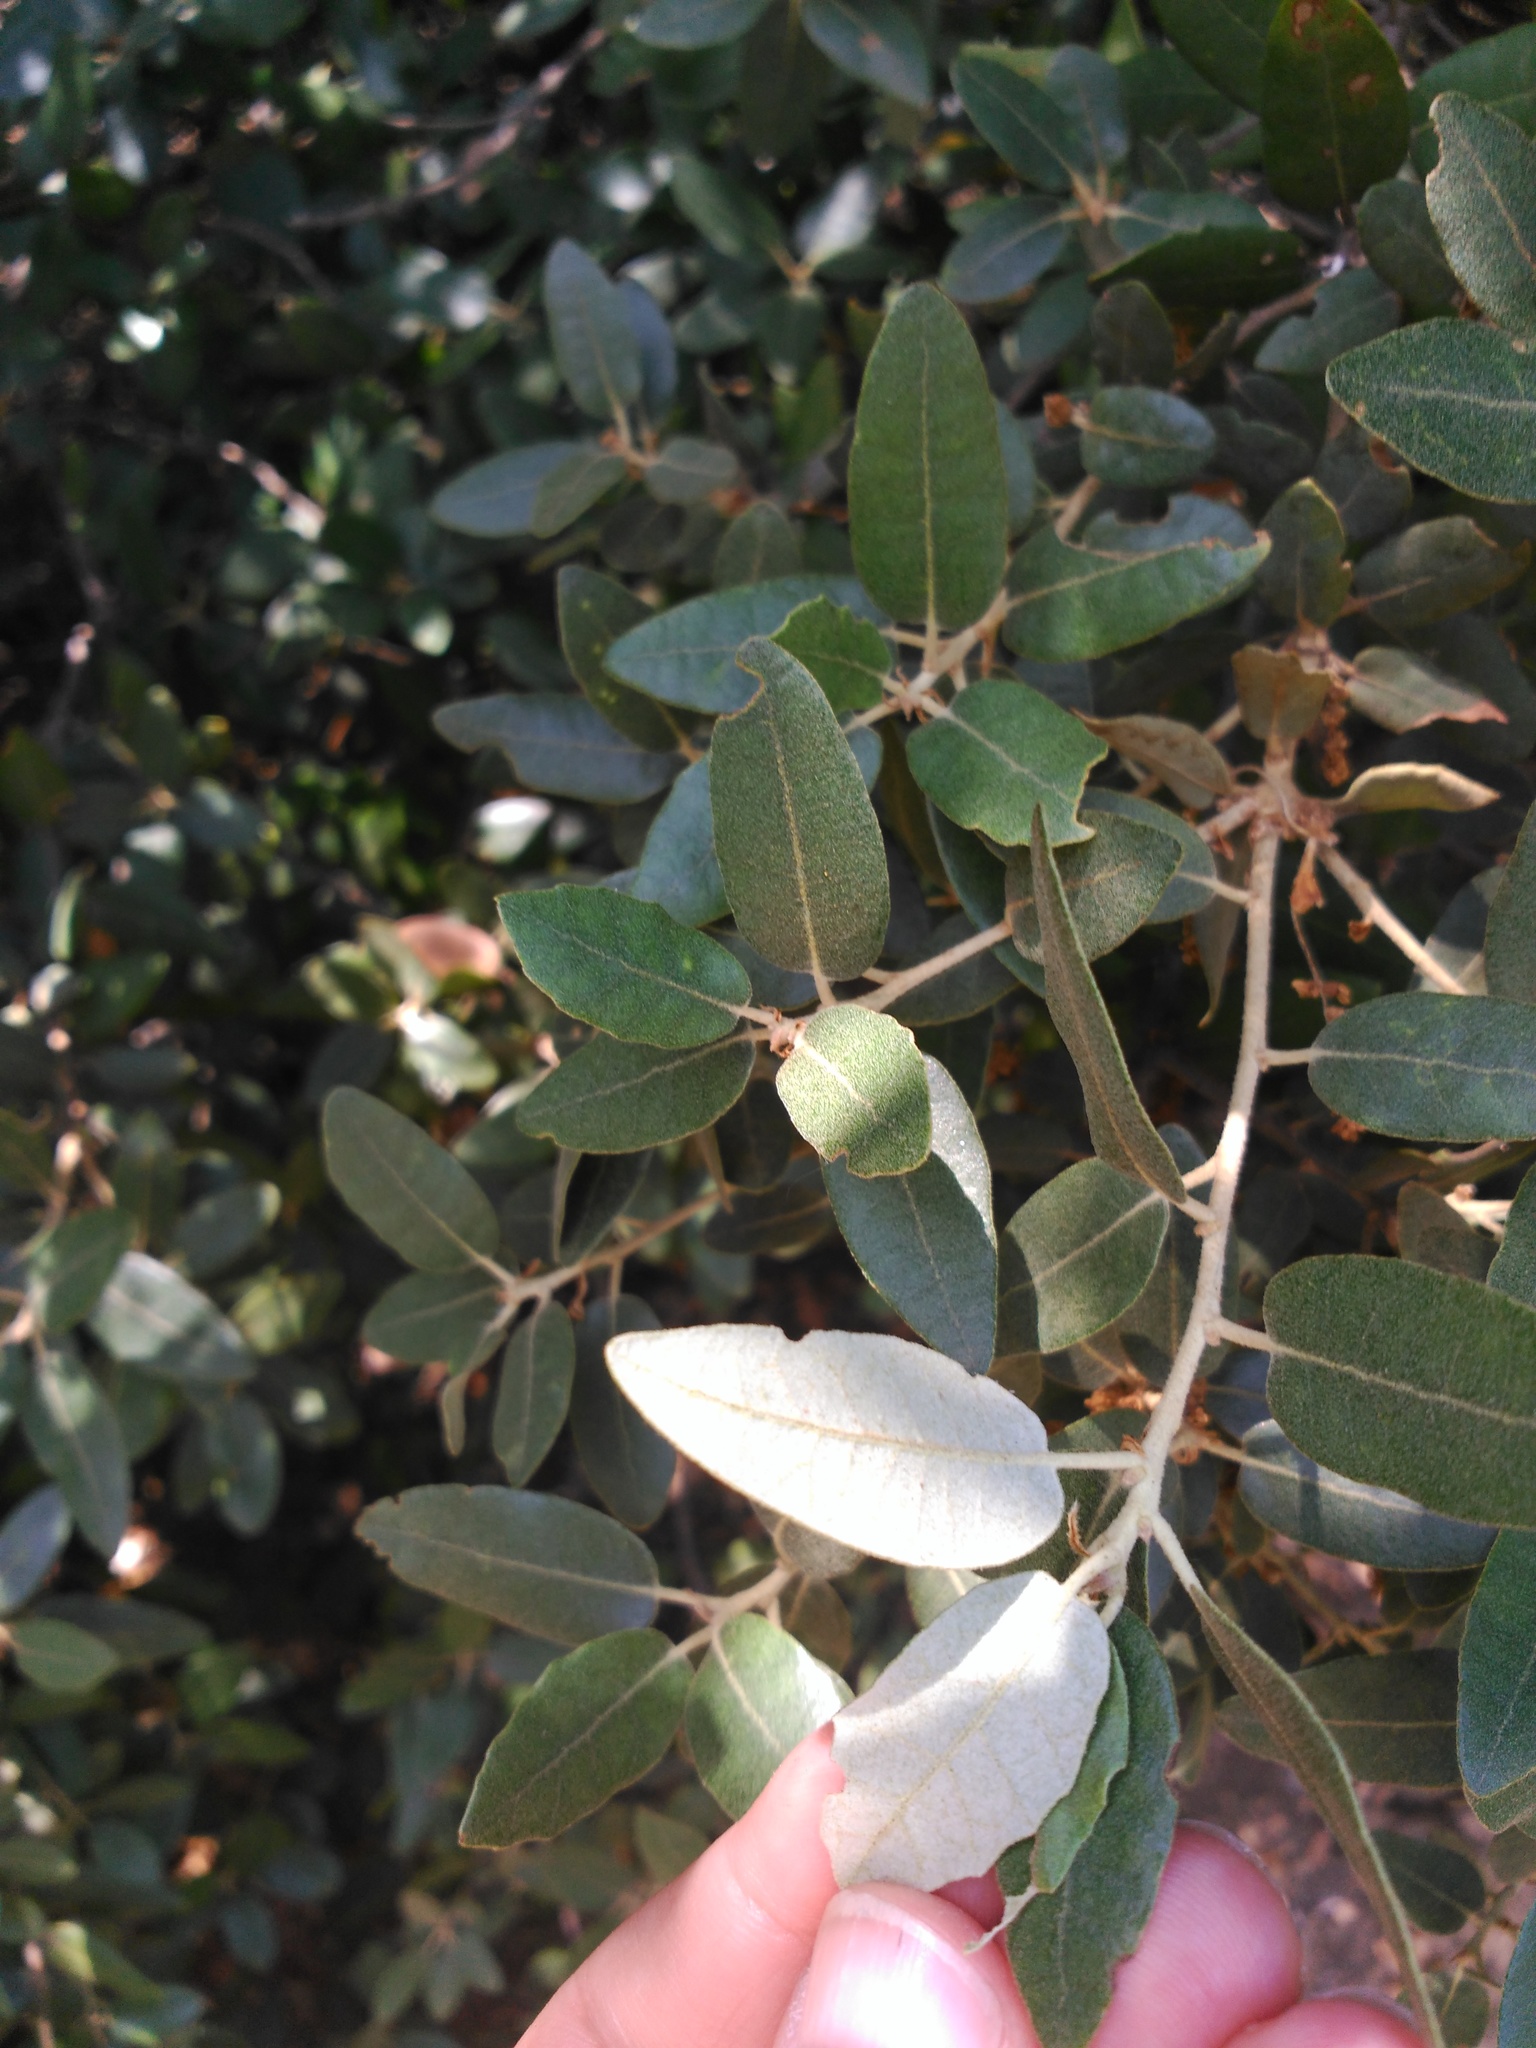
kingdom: Plantae
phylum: Tracheophyta
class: Magnoliopsida
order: Fagales
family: Fagaceae
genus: Quercus
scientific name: Quercus ilex
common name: Evergreen oak
